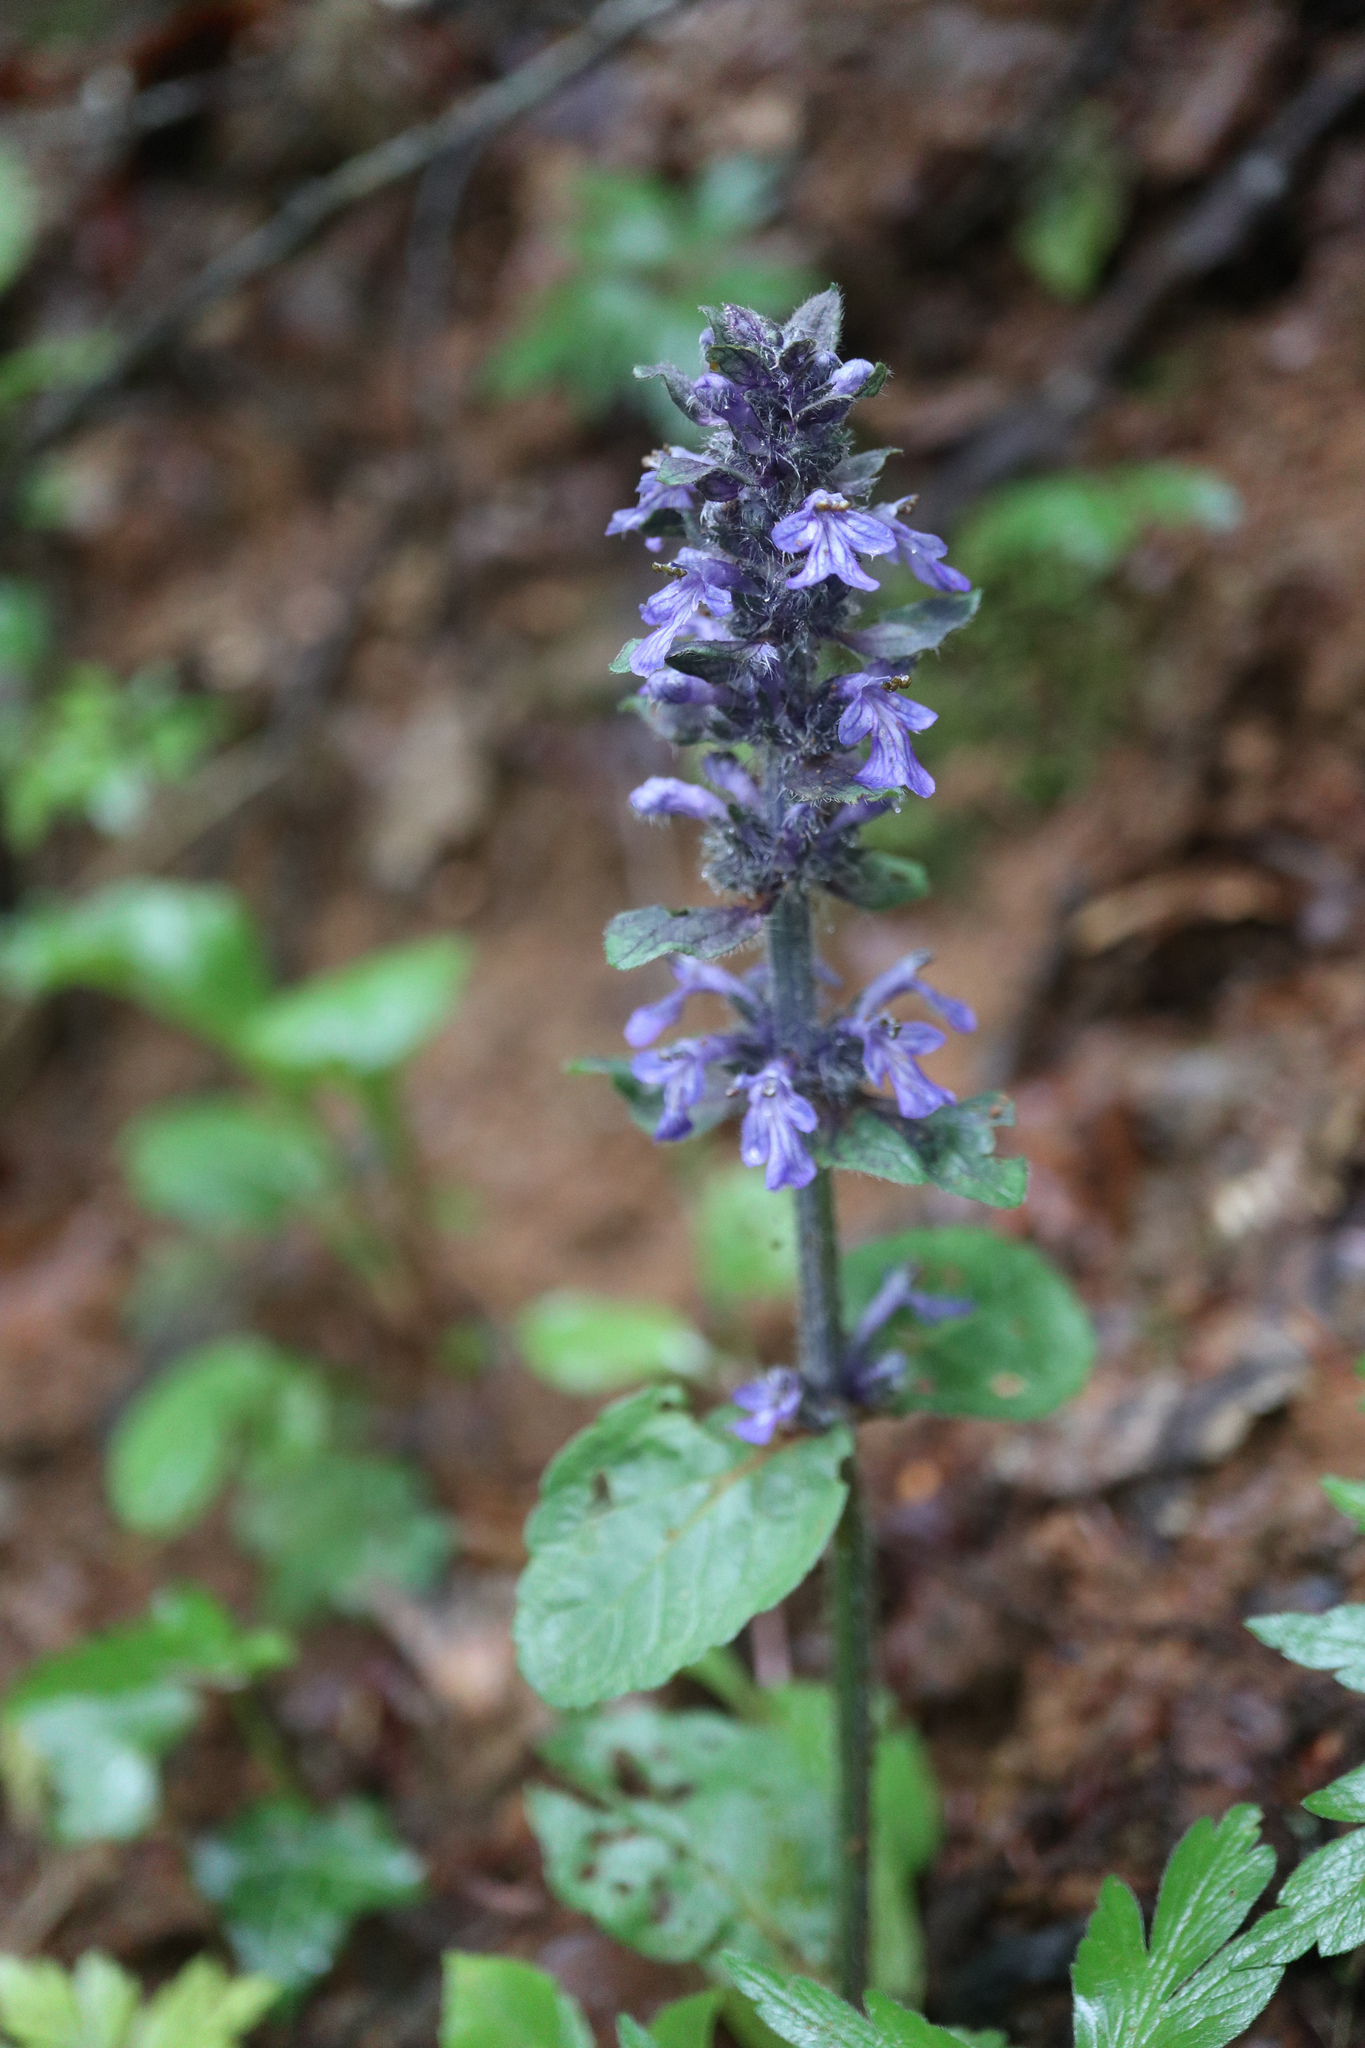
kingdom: Plantae
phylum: Tracheophyta
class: Magnoliopsida
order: Lamiales
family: Lamiaceae
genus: Ajuga
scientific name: Ajuga reptans
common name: Bugle
